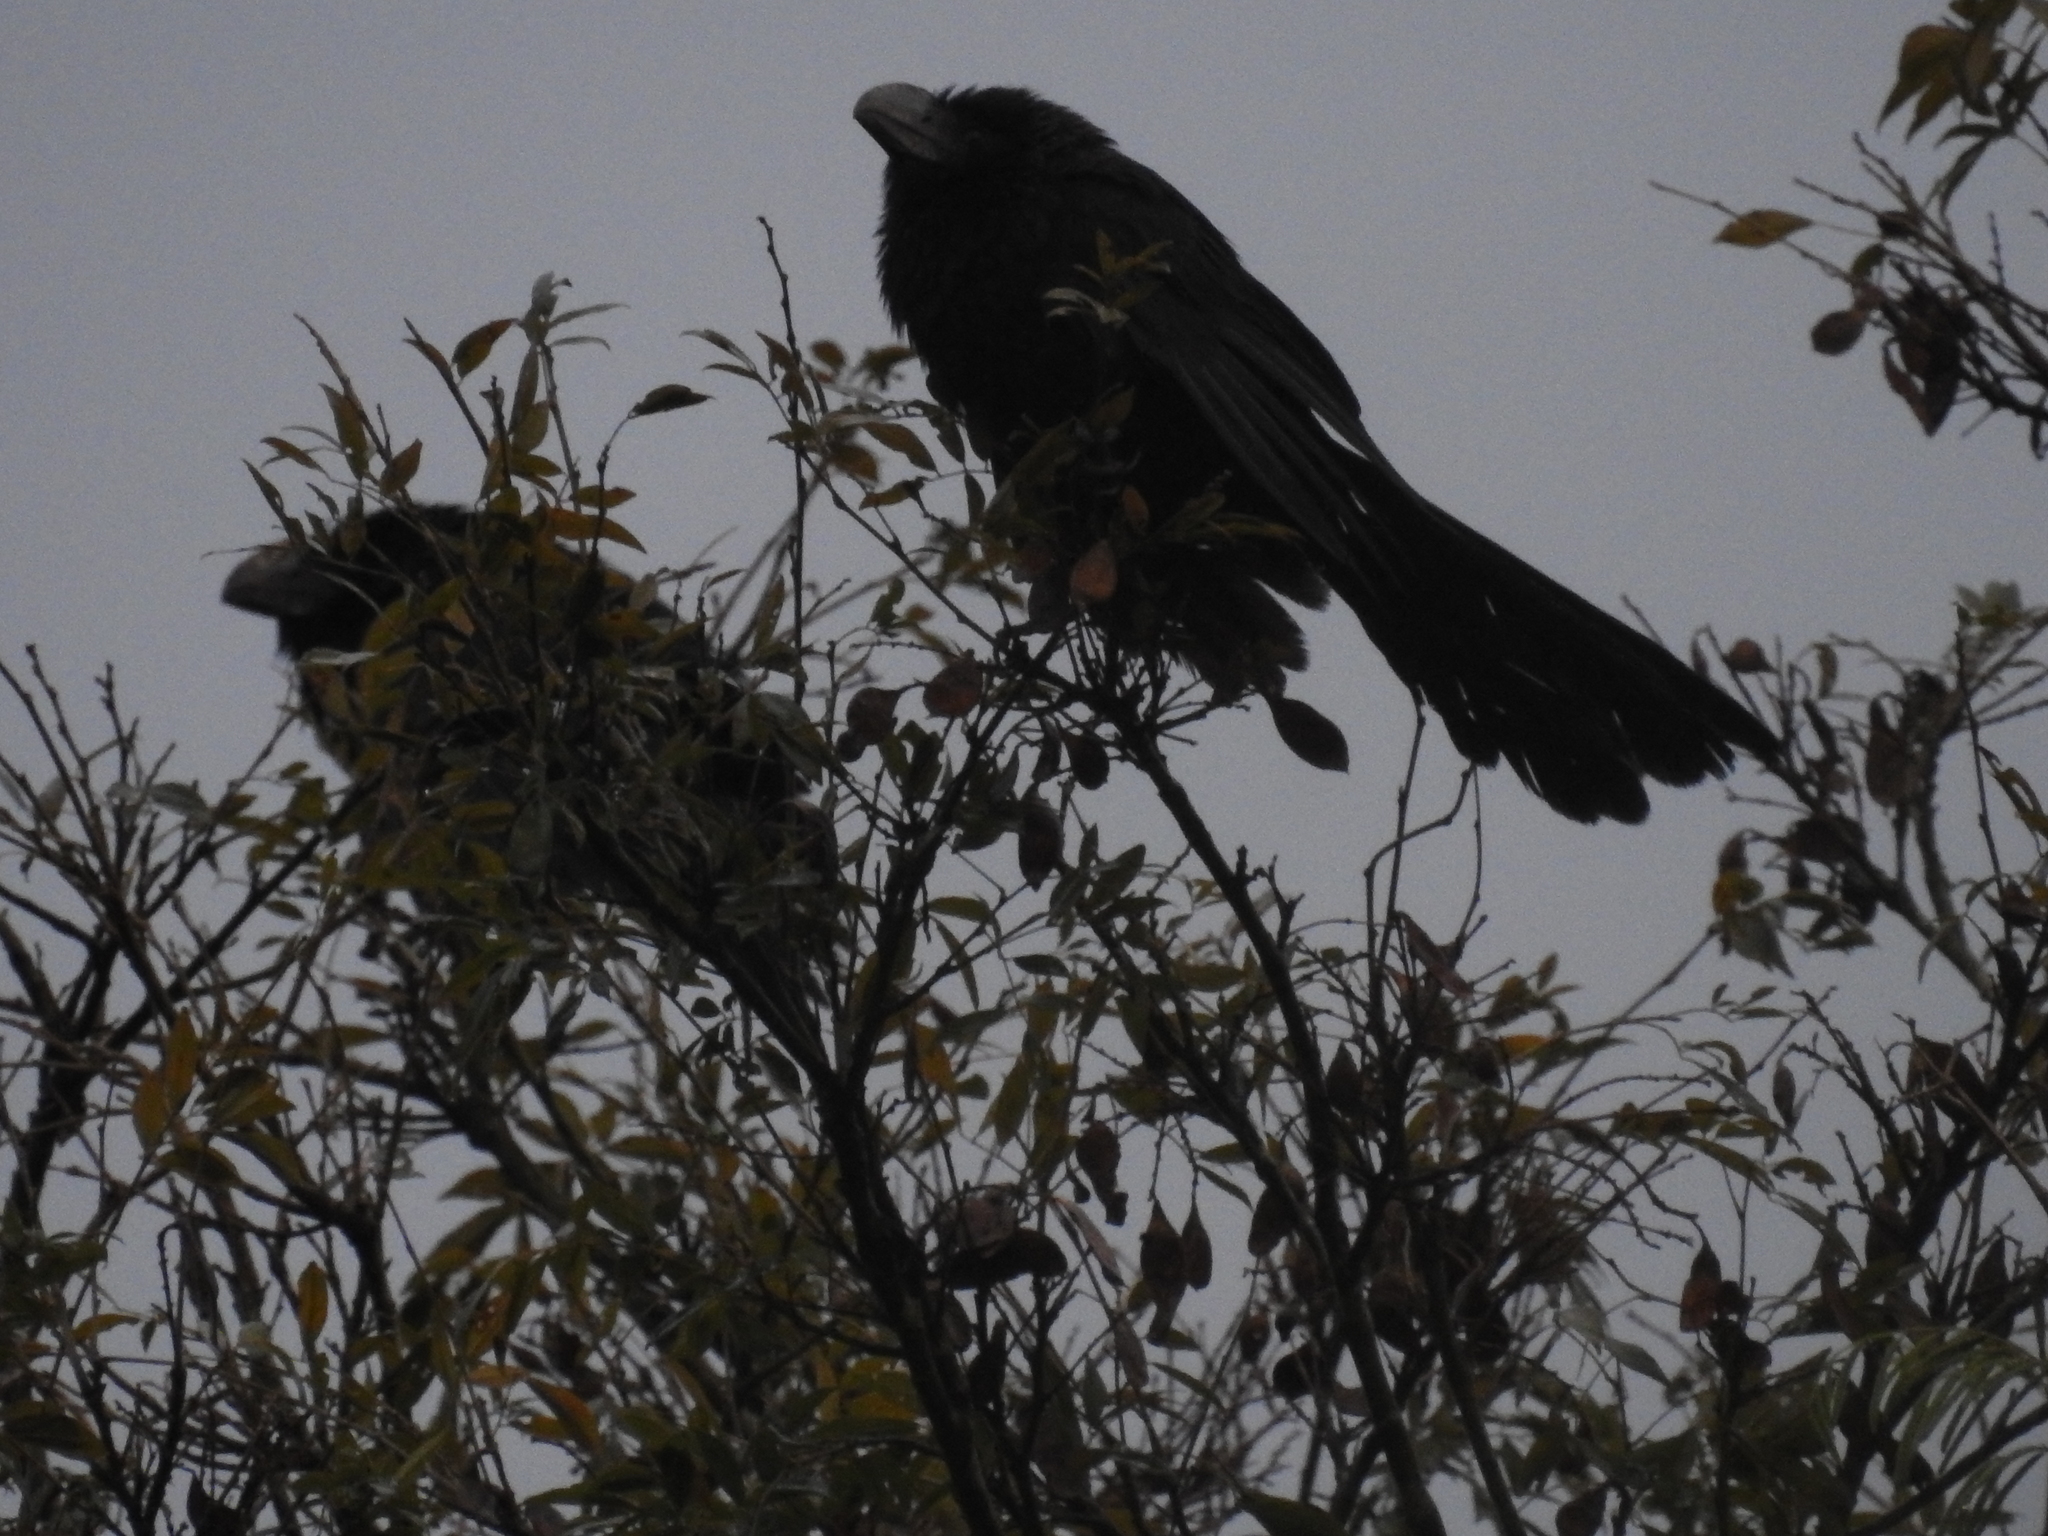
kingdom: Animalia
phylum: Chordata
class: Aves
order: Cuculiformes
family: Cuculidae
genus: Crotophaga
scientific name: Crotophaga ani
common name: Smooth-billed ani
